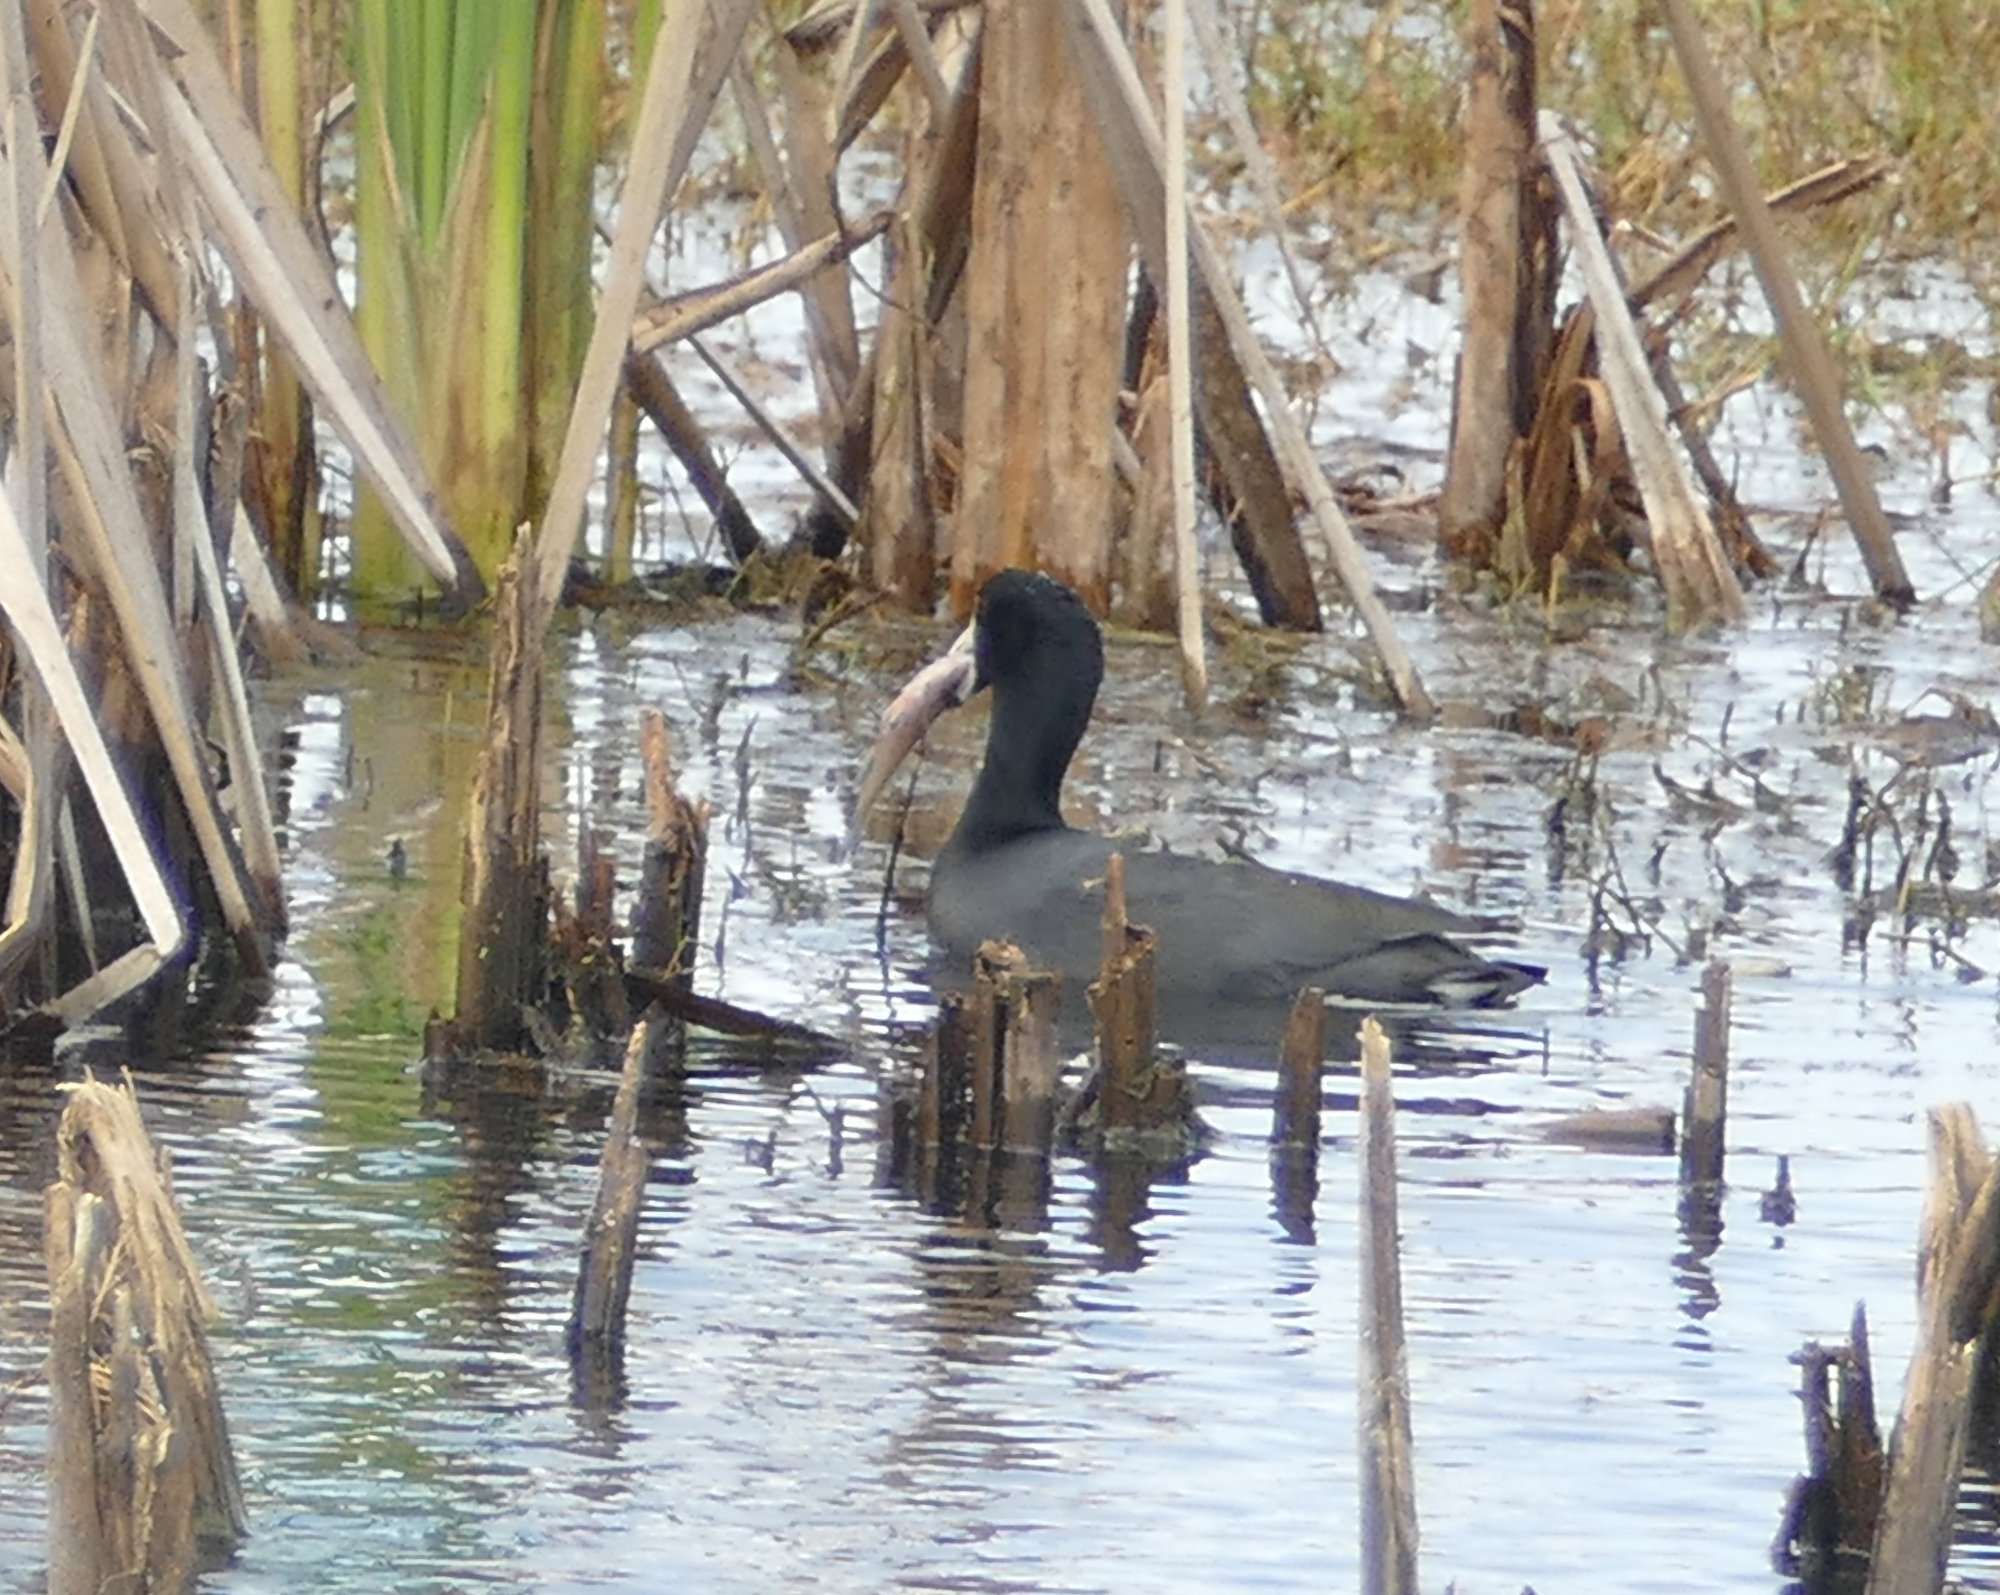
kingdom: Animalia
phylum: Chordata
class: Aves
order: Gruiformes
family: Rallidae
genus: Fulica
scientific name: Fulica americana
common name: American coot
